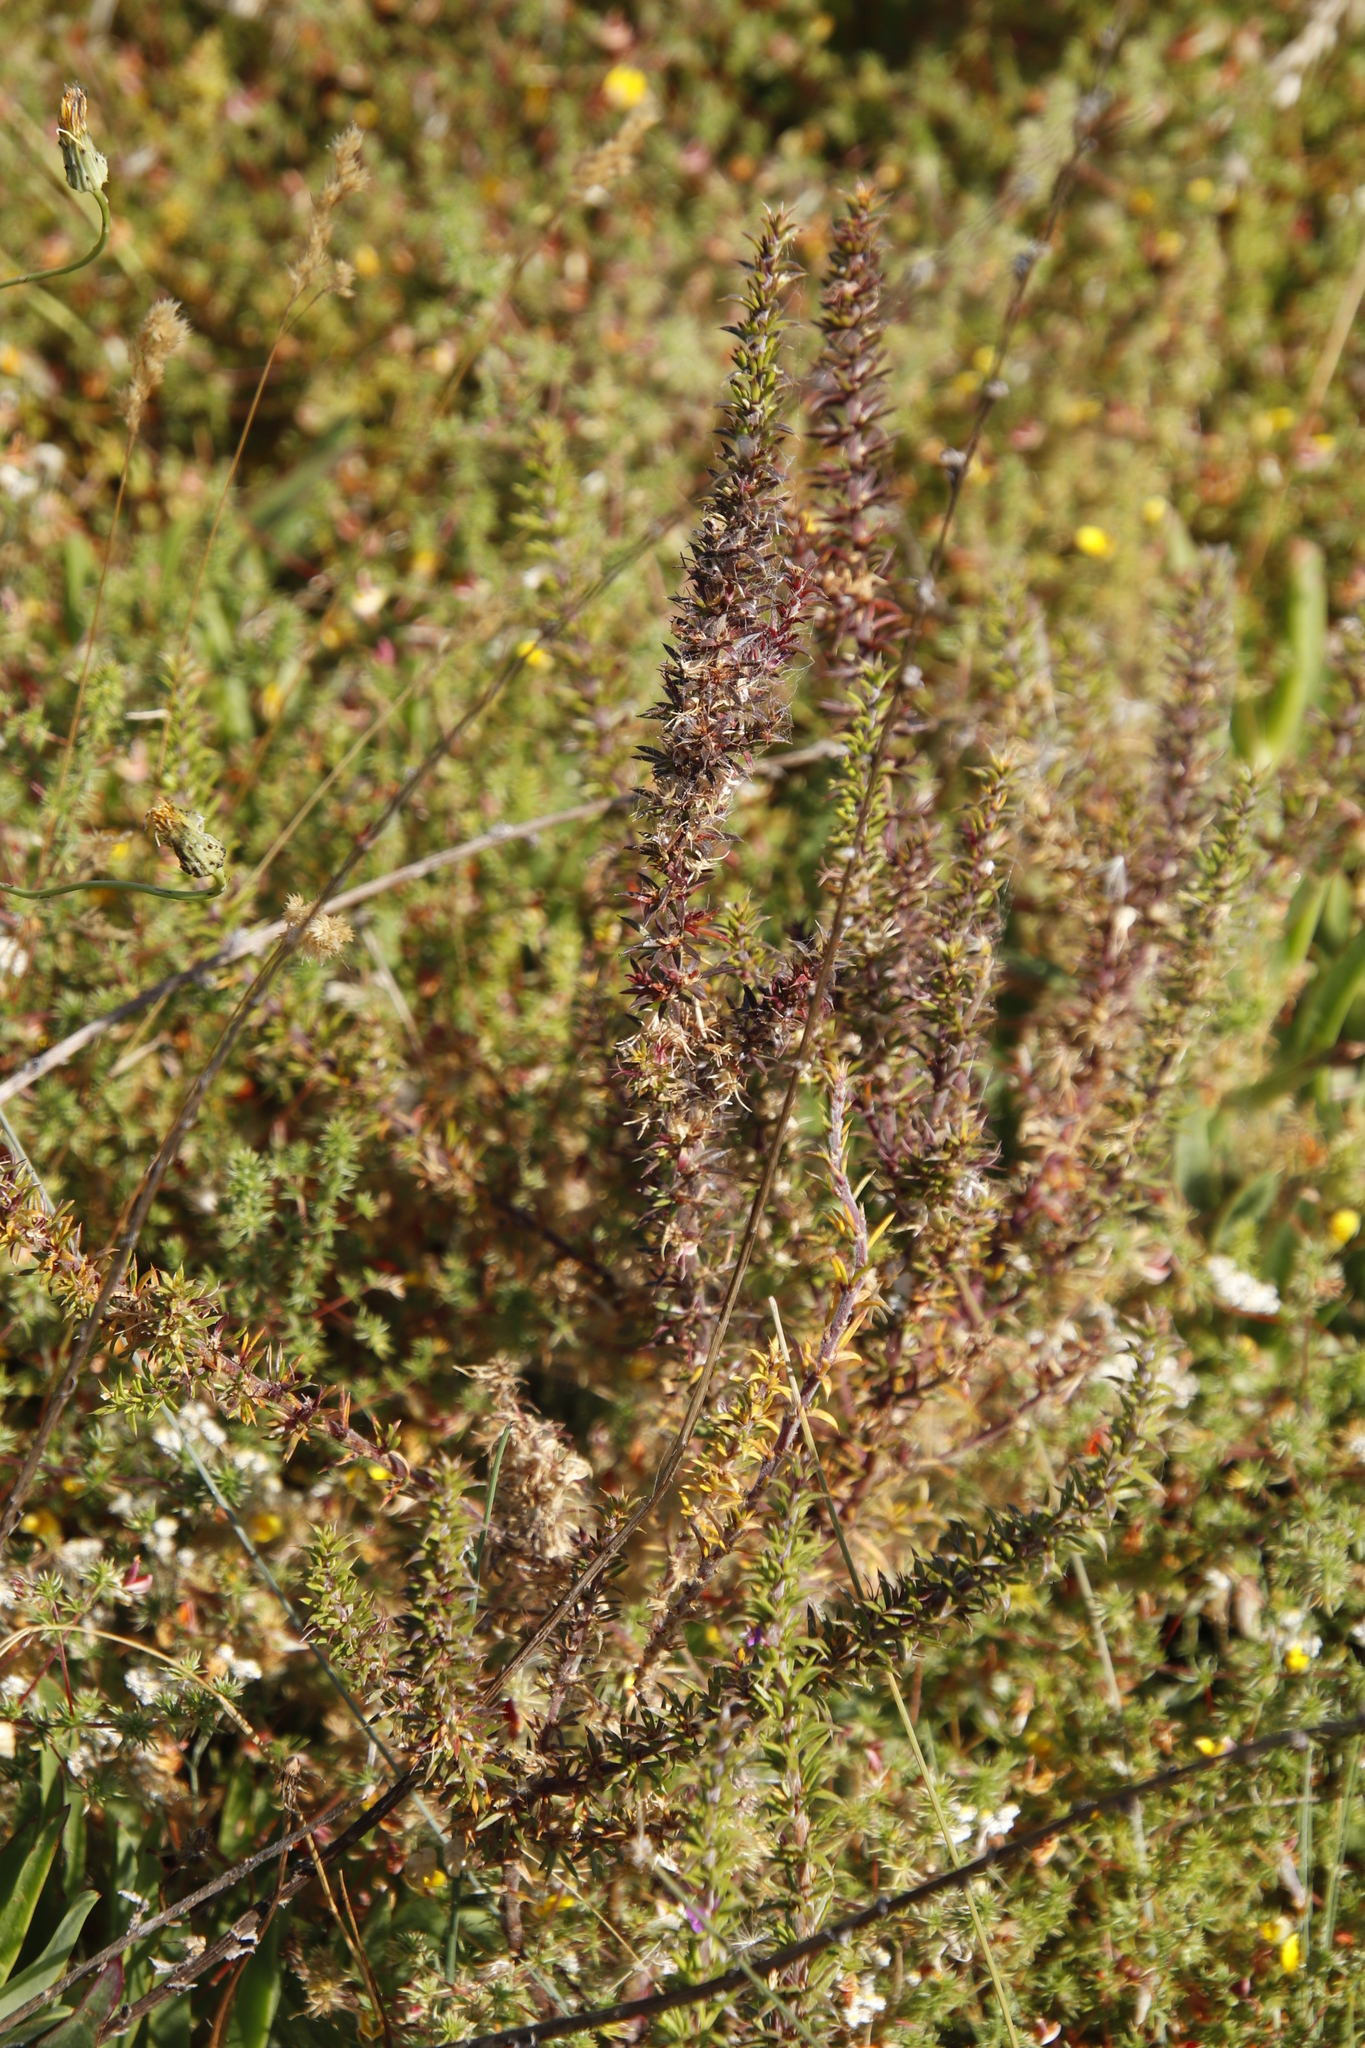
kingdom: Plantae
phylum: Tracheophyta
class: Magnoliopsida
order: Fabales
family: Polygalaceae
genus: Muraltia
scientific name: Muraltia heisteria
